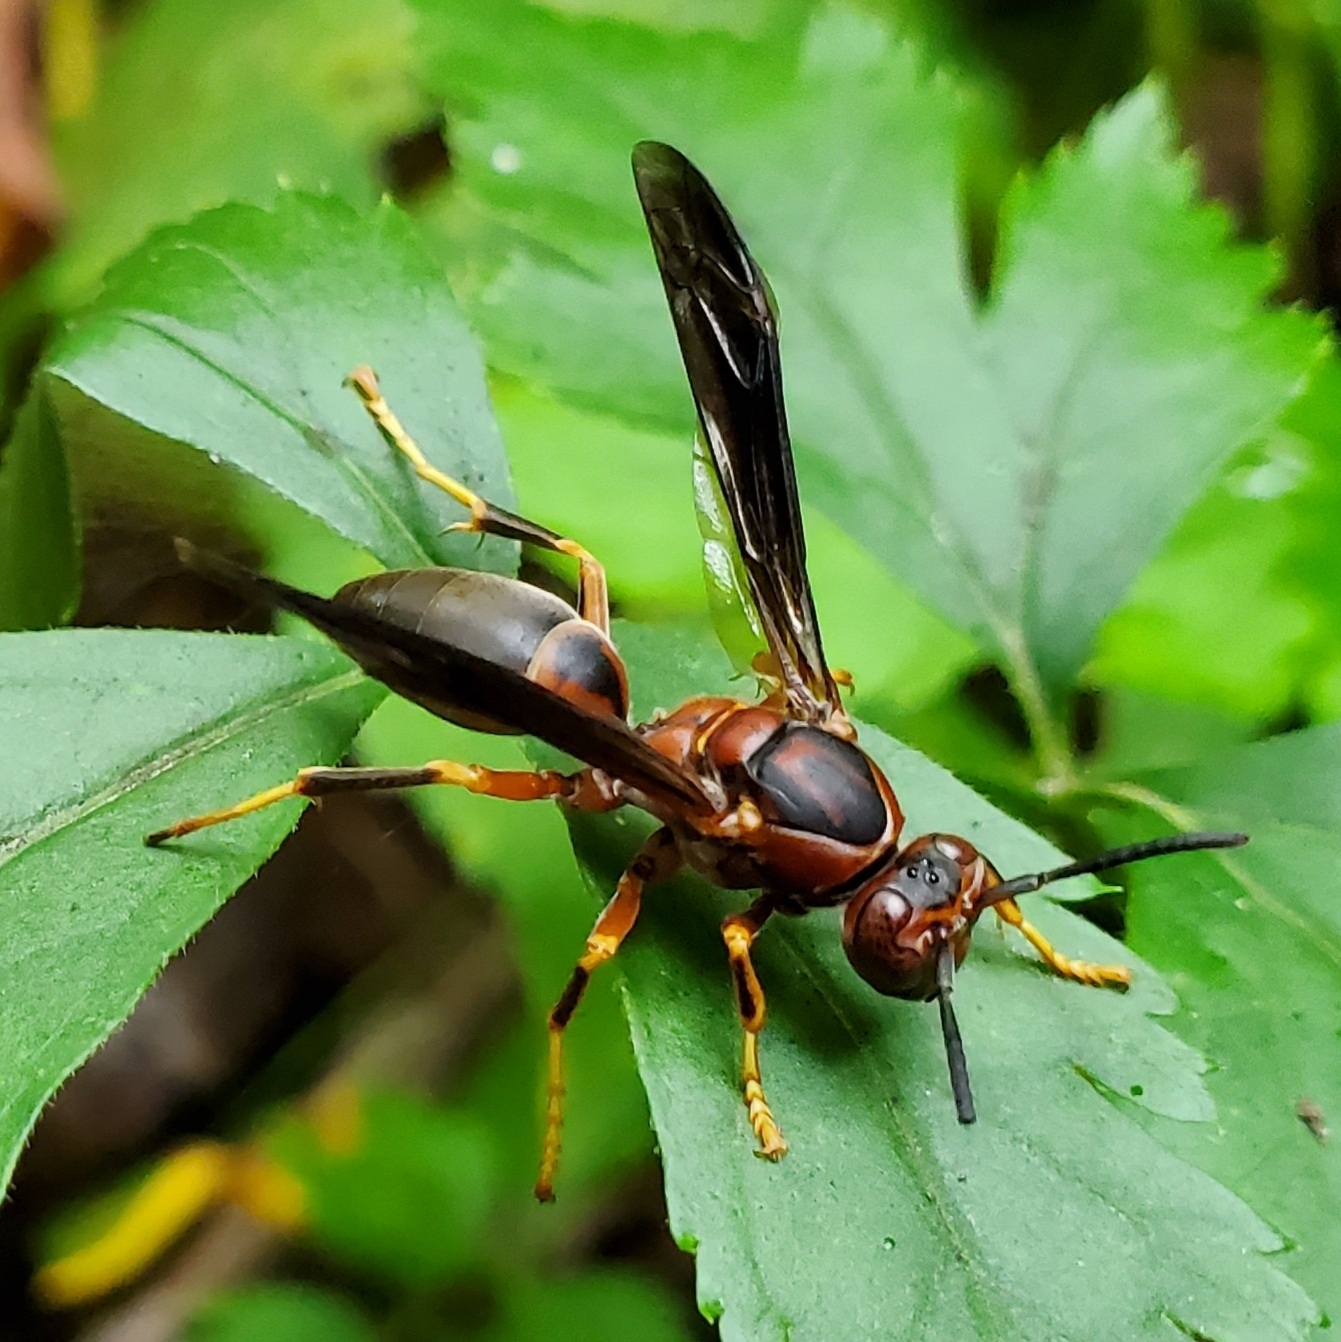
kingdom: Animalia
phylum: Arthropoda
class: Insecta
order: Hymenoptera
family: Eumenidae
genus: Polistes
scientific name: Polistes metricus
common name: Metric paper wasp
